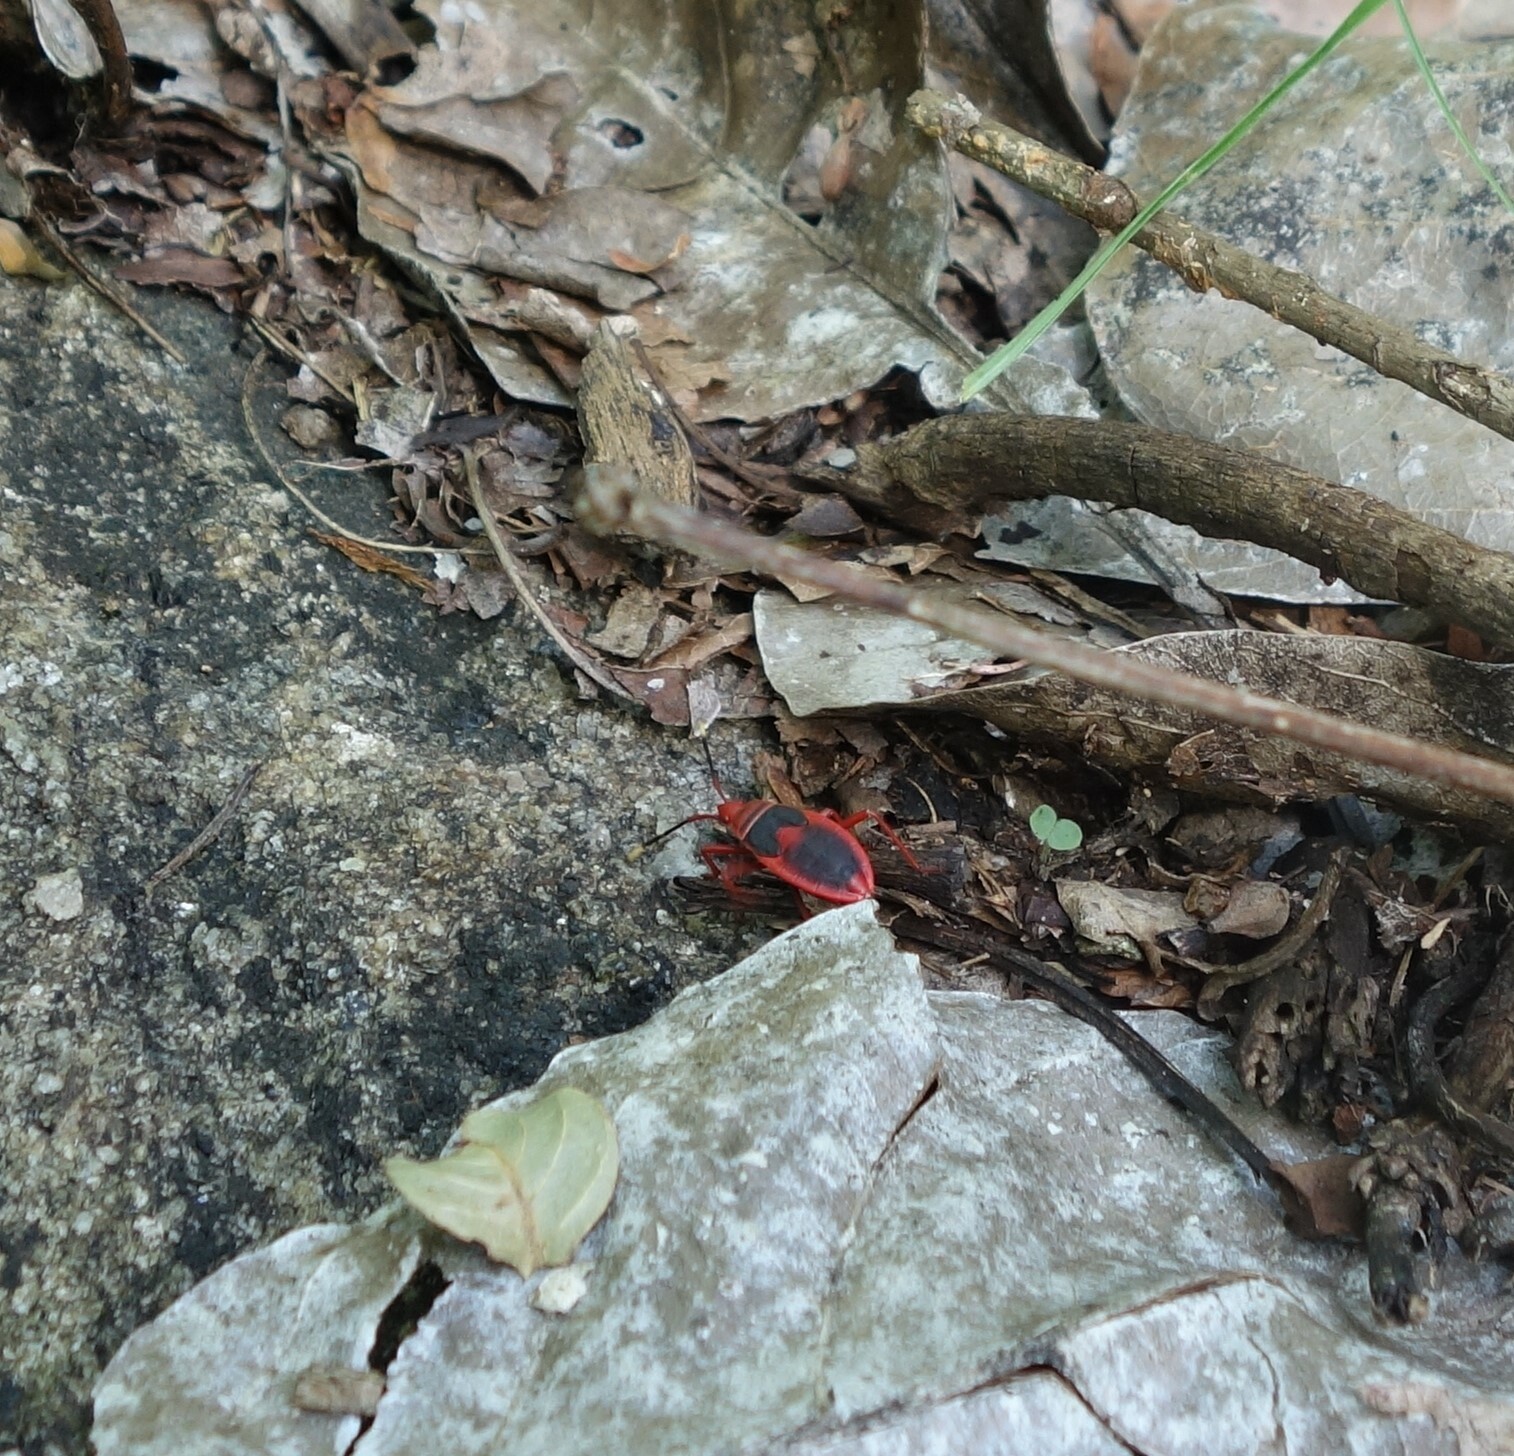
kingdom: Animalia
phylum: Arthropoda
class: Insecta
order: Hemiptera
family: Pyrrhocoridae
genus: Probergrothius
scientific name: Probergrothius
